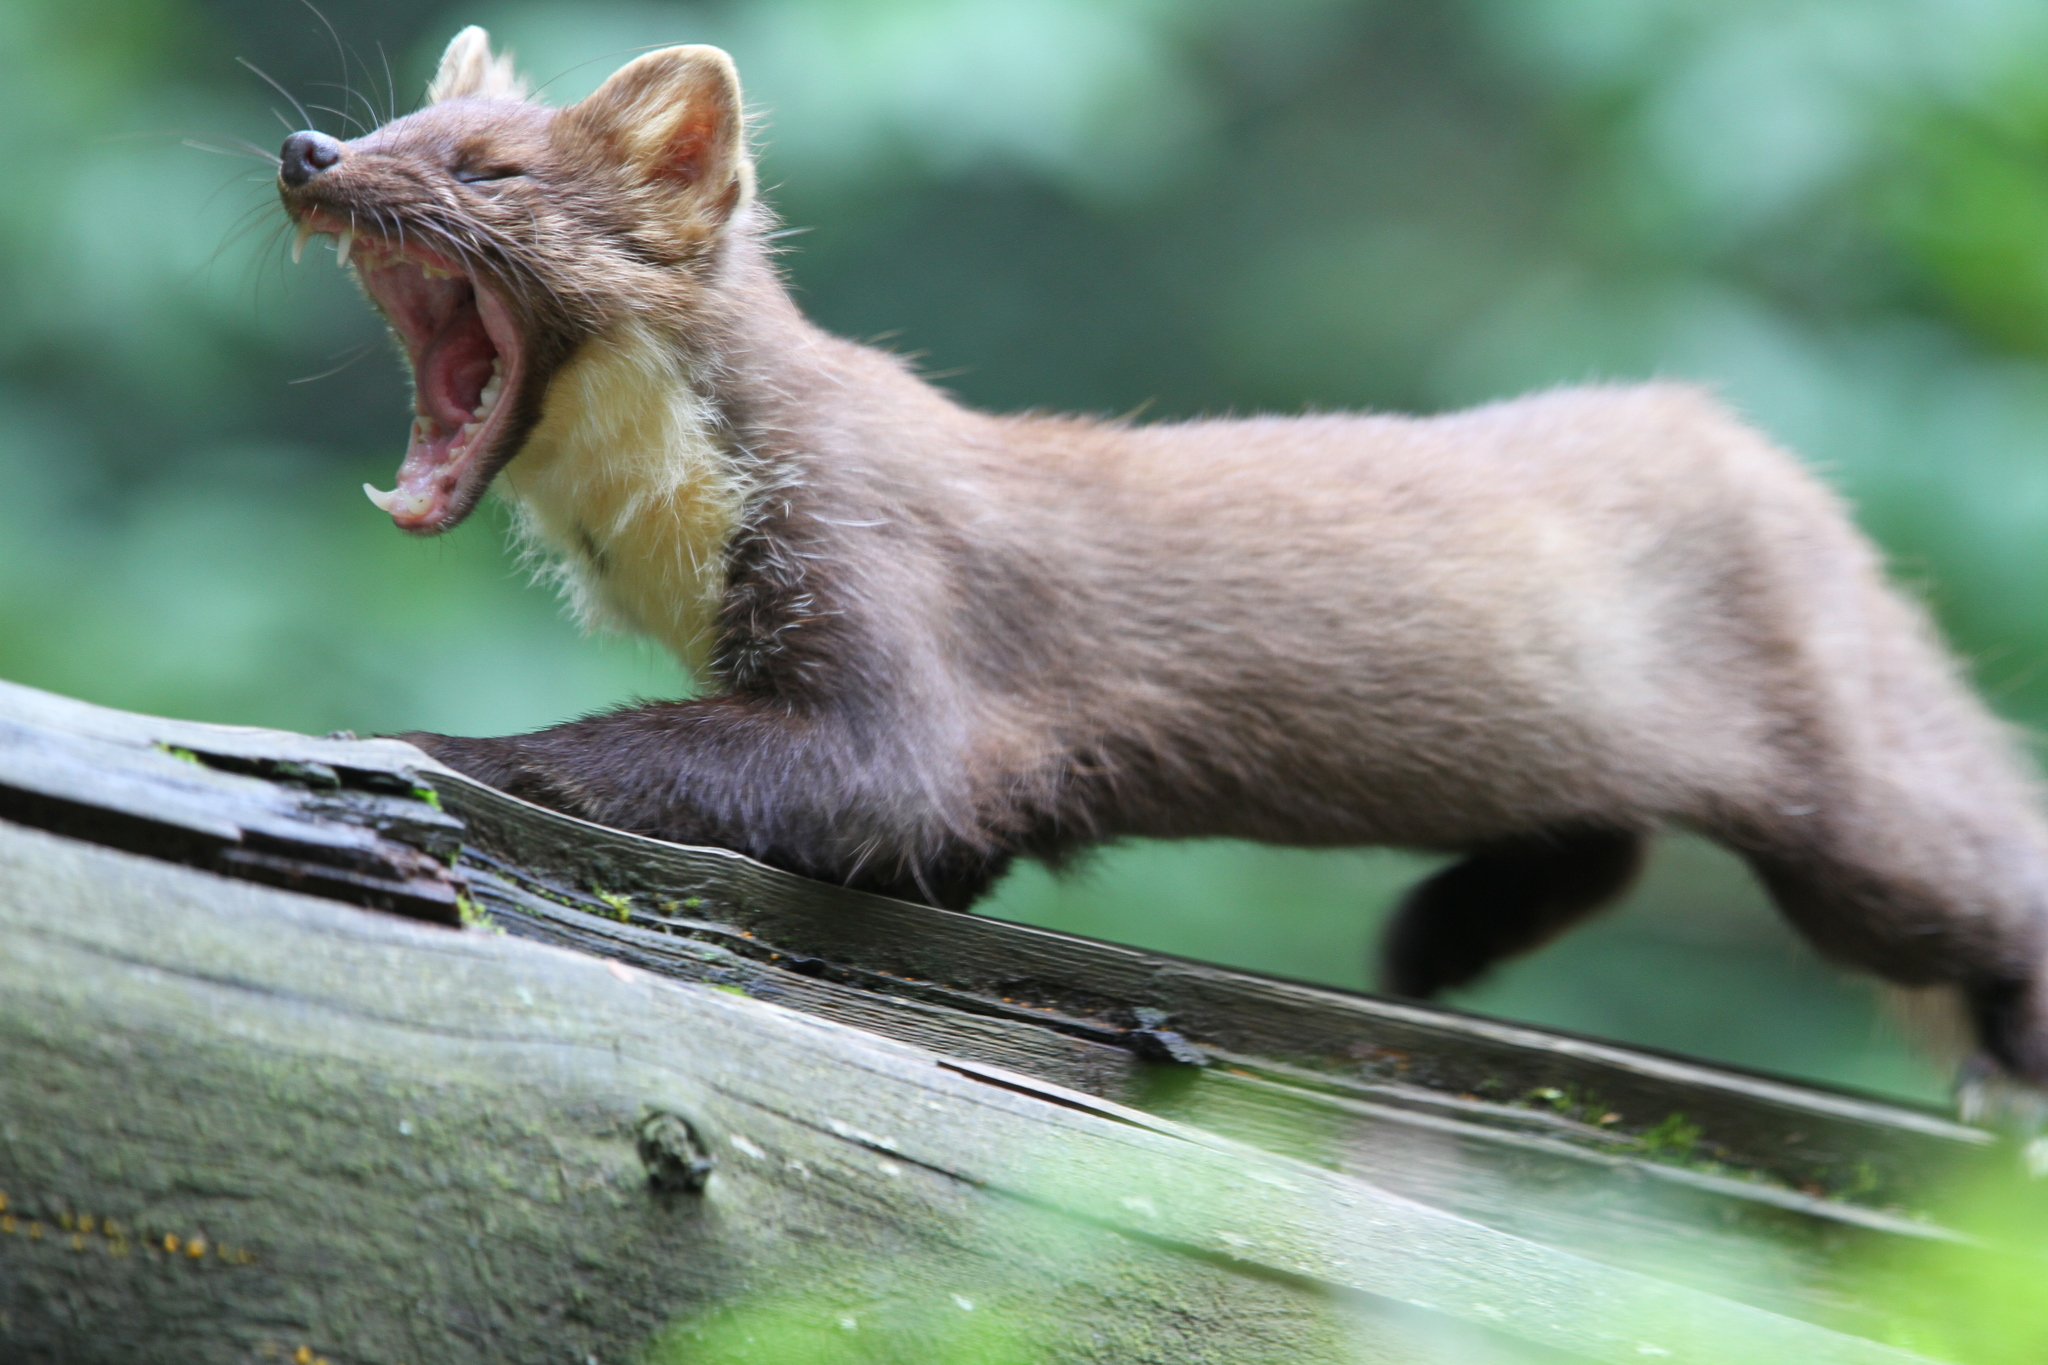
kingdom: Animalia
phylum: Chordata
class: Mammalia
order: Carnivora
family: Mustelidae
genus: Martes
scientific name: Martes martes
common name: European pine marten
